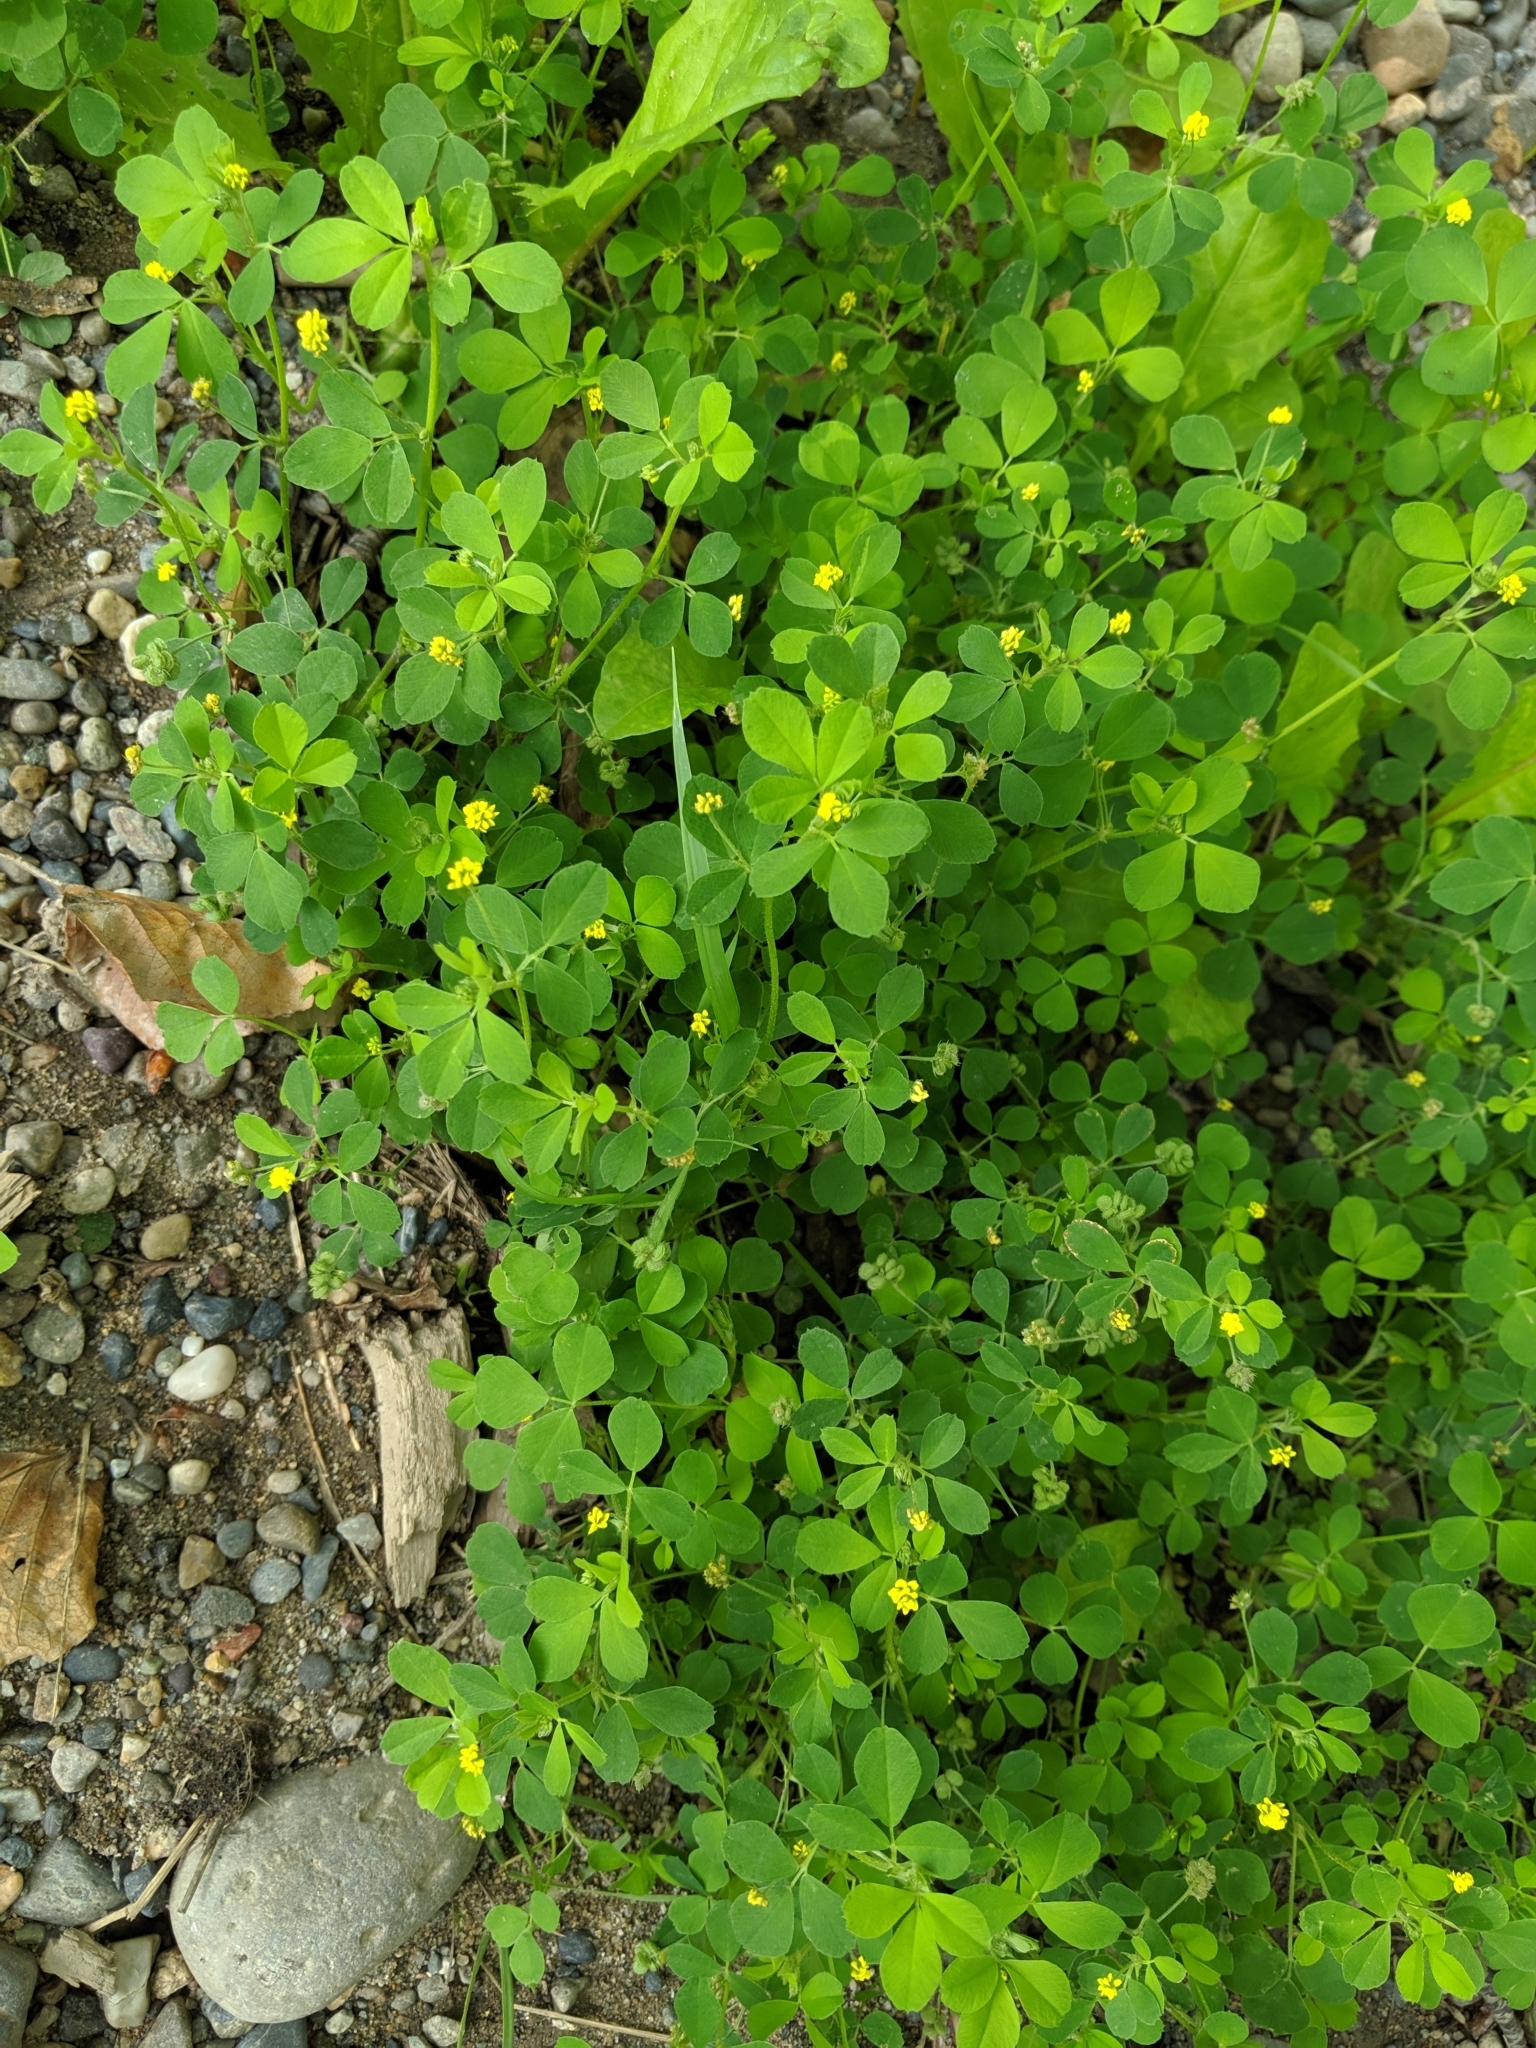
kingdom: Plantae
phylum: Tracheophyta
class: Magnoliopsida
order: Fabales
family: Fabaceae
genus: Medicago
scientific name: Medicago lupulina
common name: Black medick
